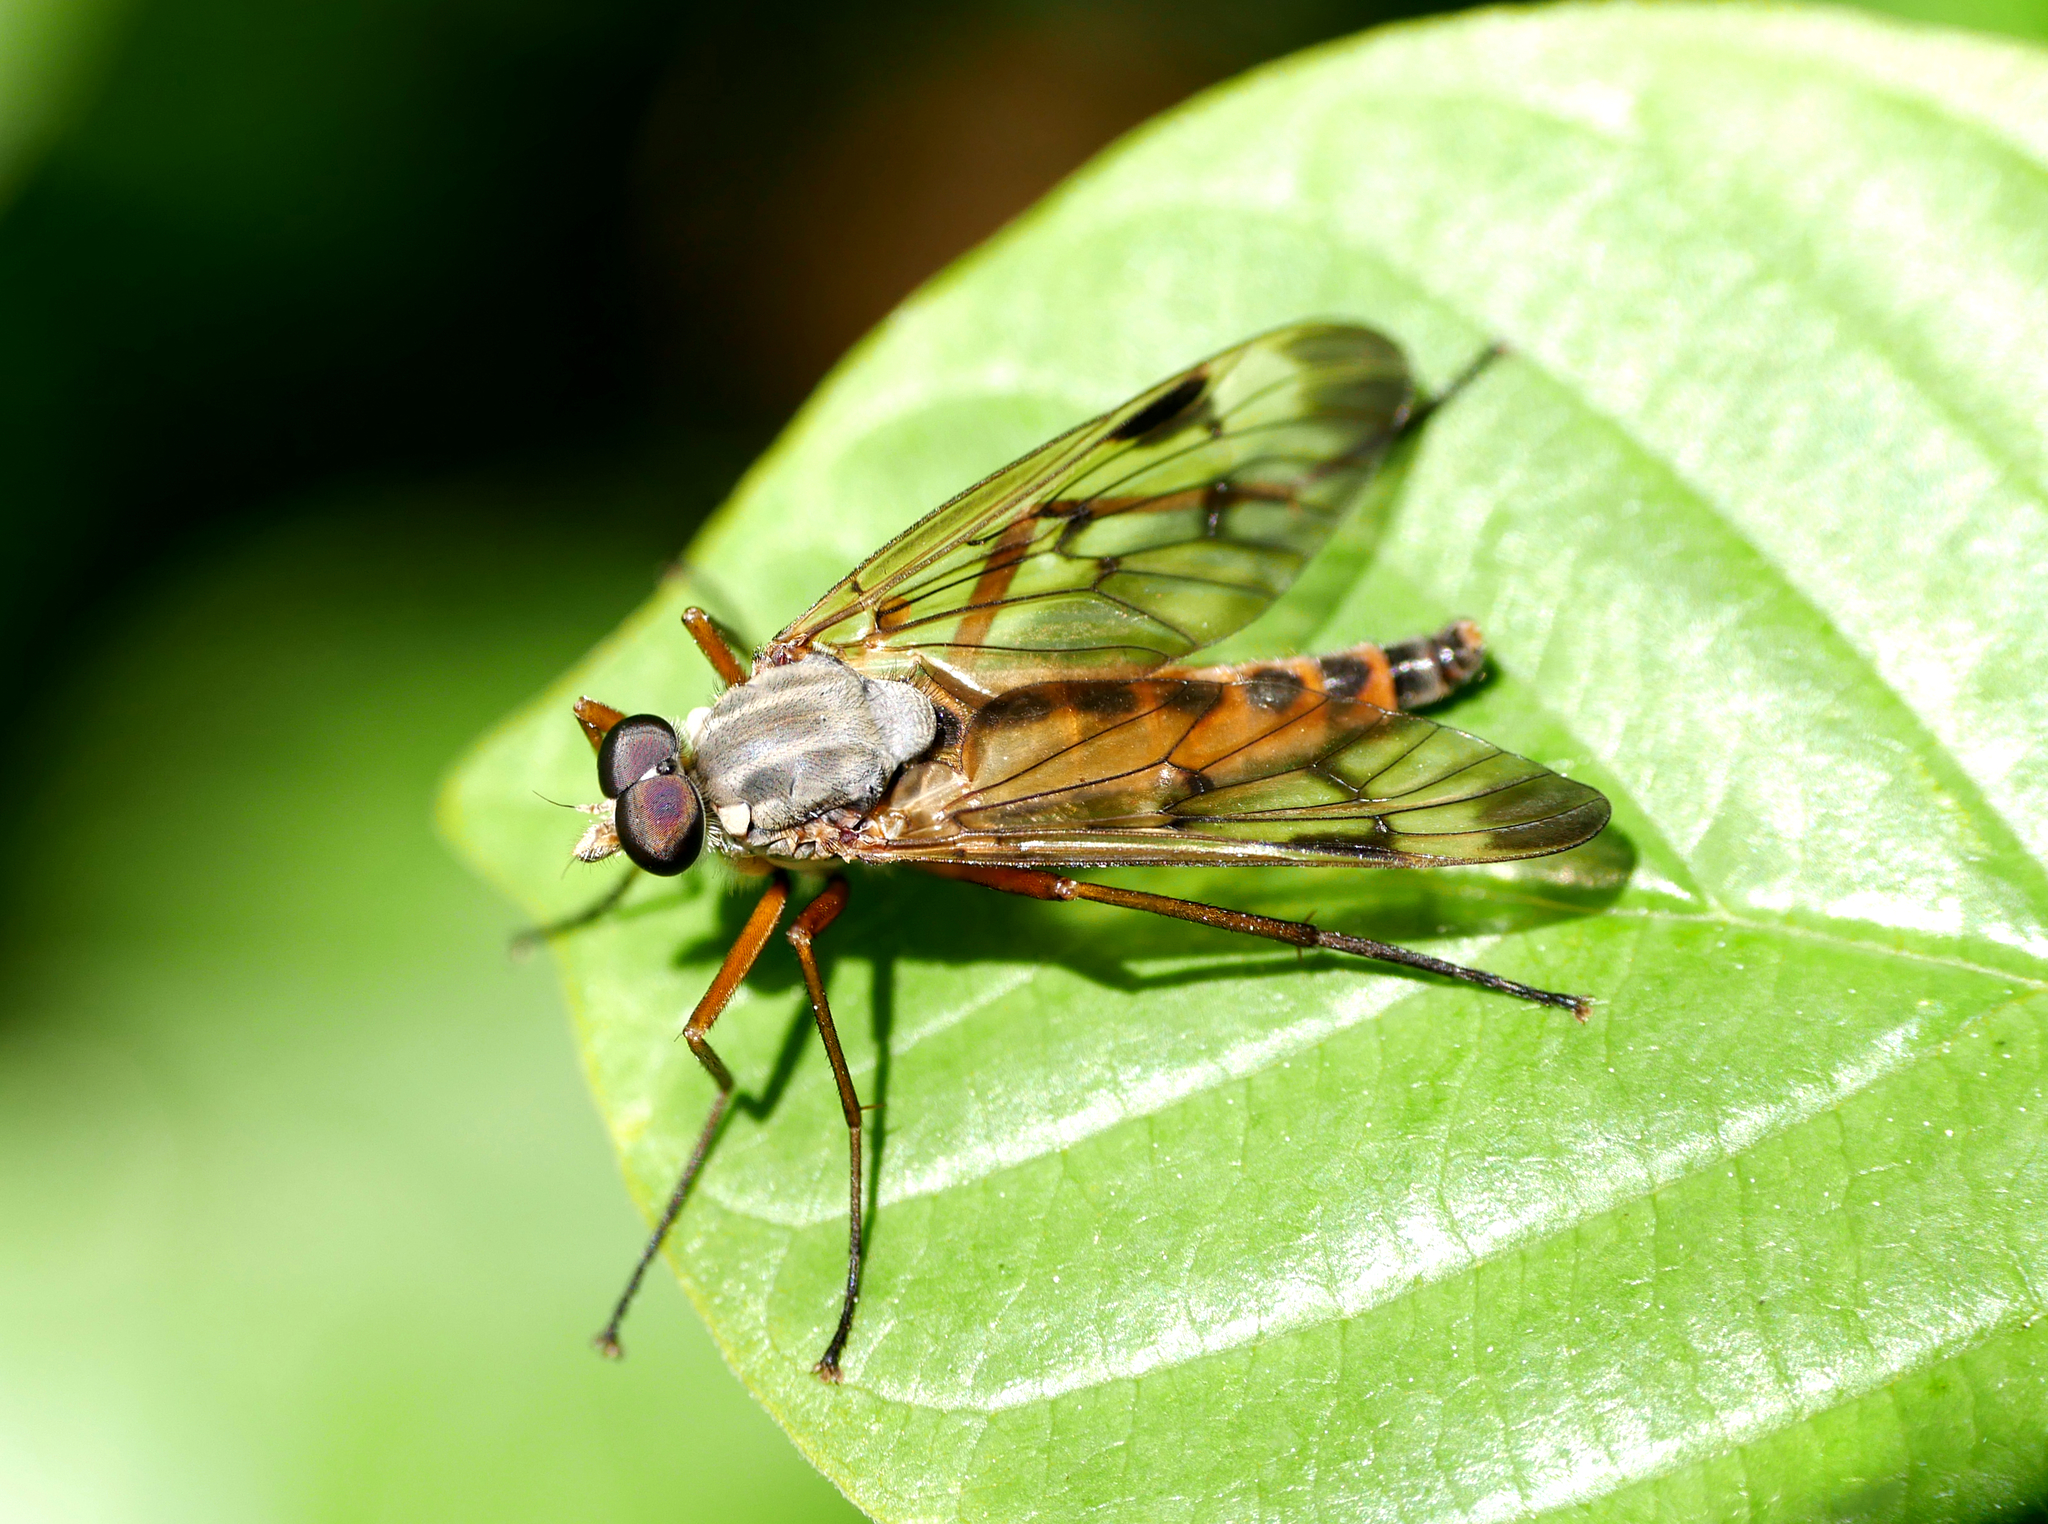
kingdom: Animalia
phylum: Arthropoda
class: Insecta
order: Diptera
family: Rhagionidae
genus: Rhagio
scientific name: Rhagio scolopacea
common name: Downlooker snipefly
